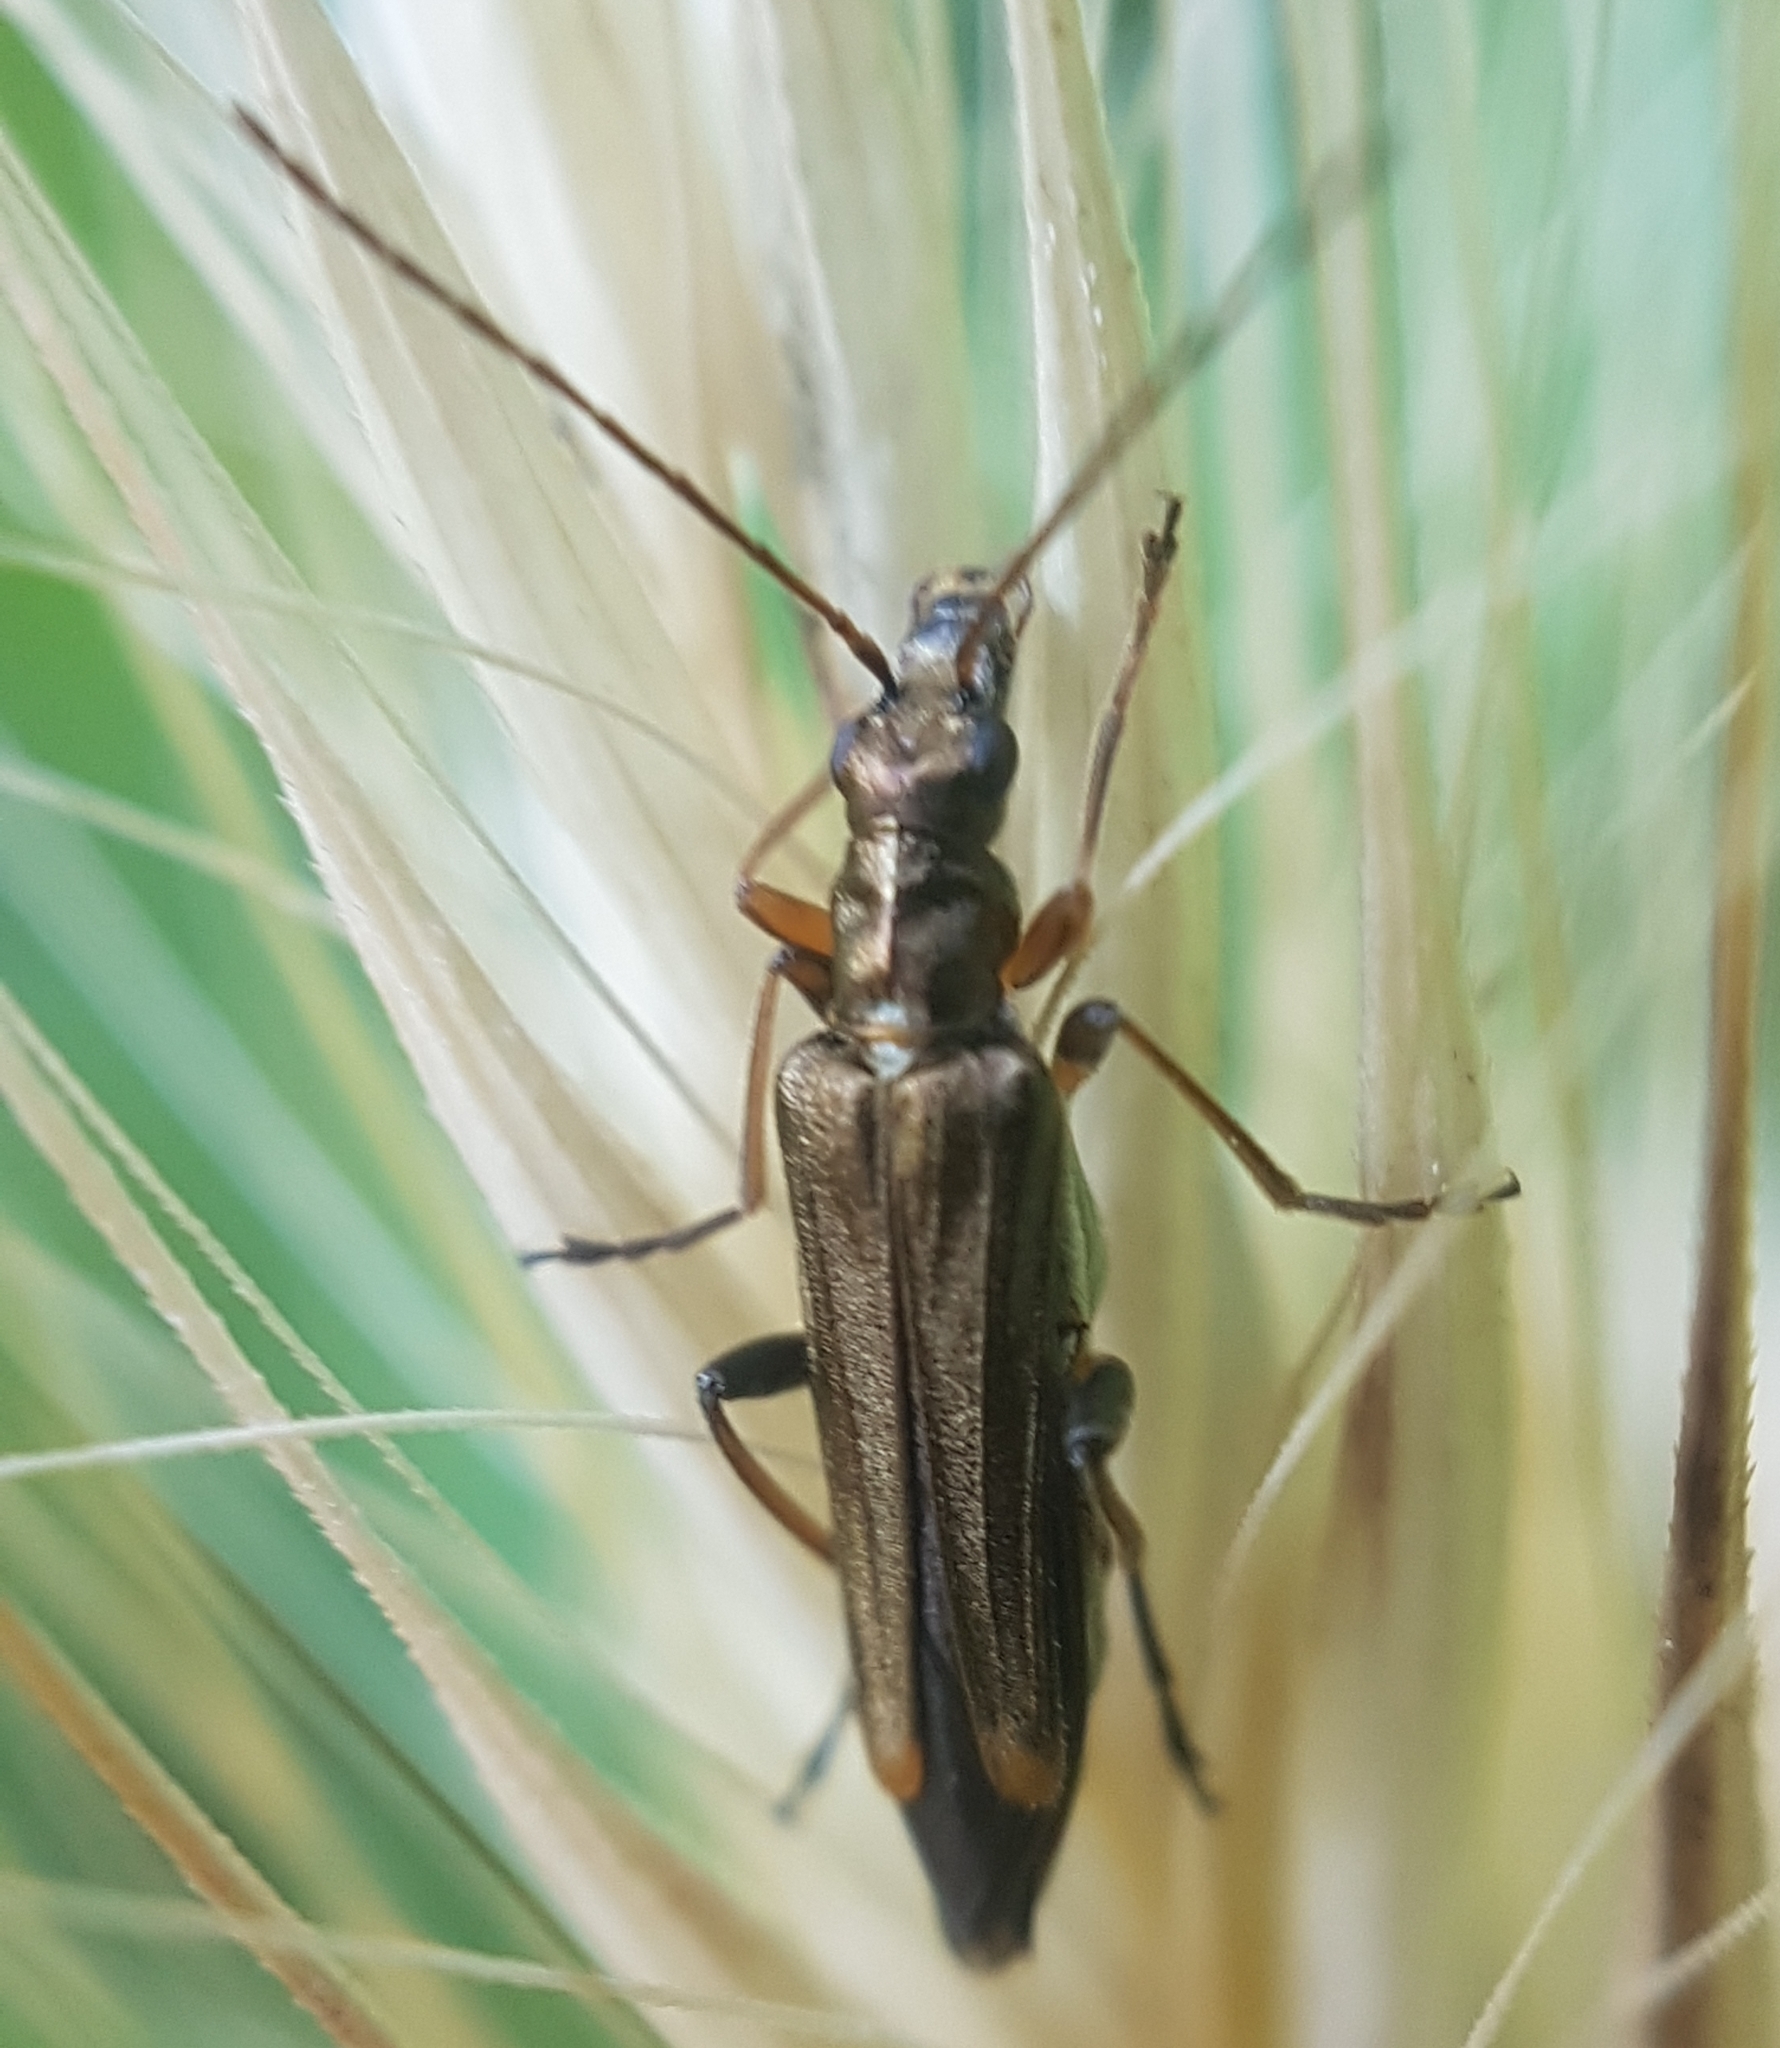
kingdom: Animalia
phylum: Arthropoda
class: Insecta
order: Coleoptera
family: Oedemeridae
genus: Oedemera
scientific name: Oedemera barbara
